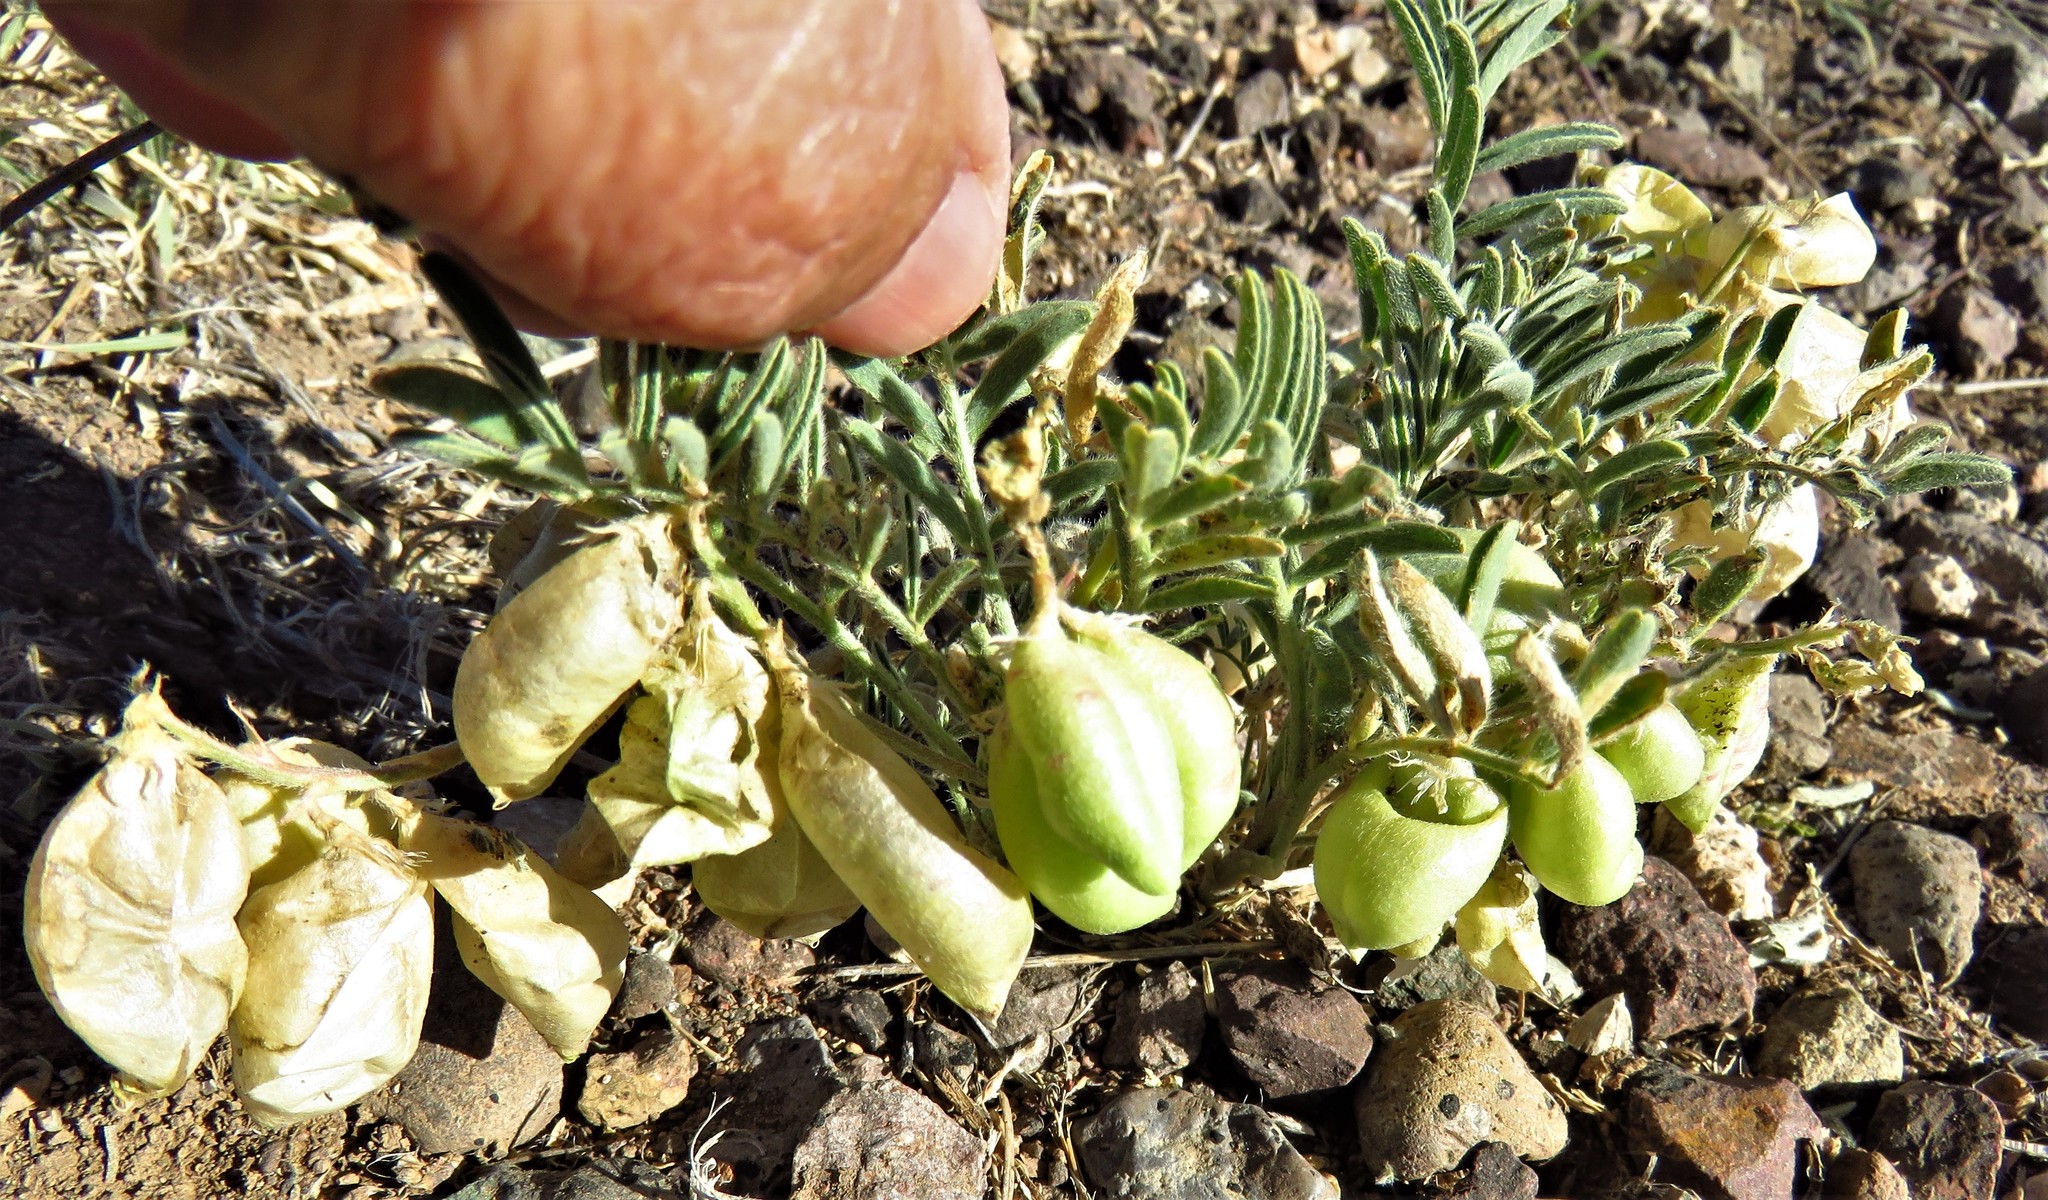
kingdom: Plantae
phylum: Tracheophyta
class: Magnoliopsida
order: Fabales
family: Fabaceae
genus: Astragalus
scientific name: Astragalus wootonii
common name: Wooton's milk-vetch
